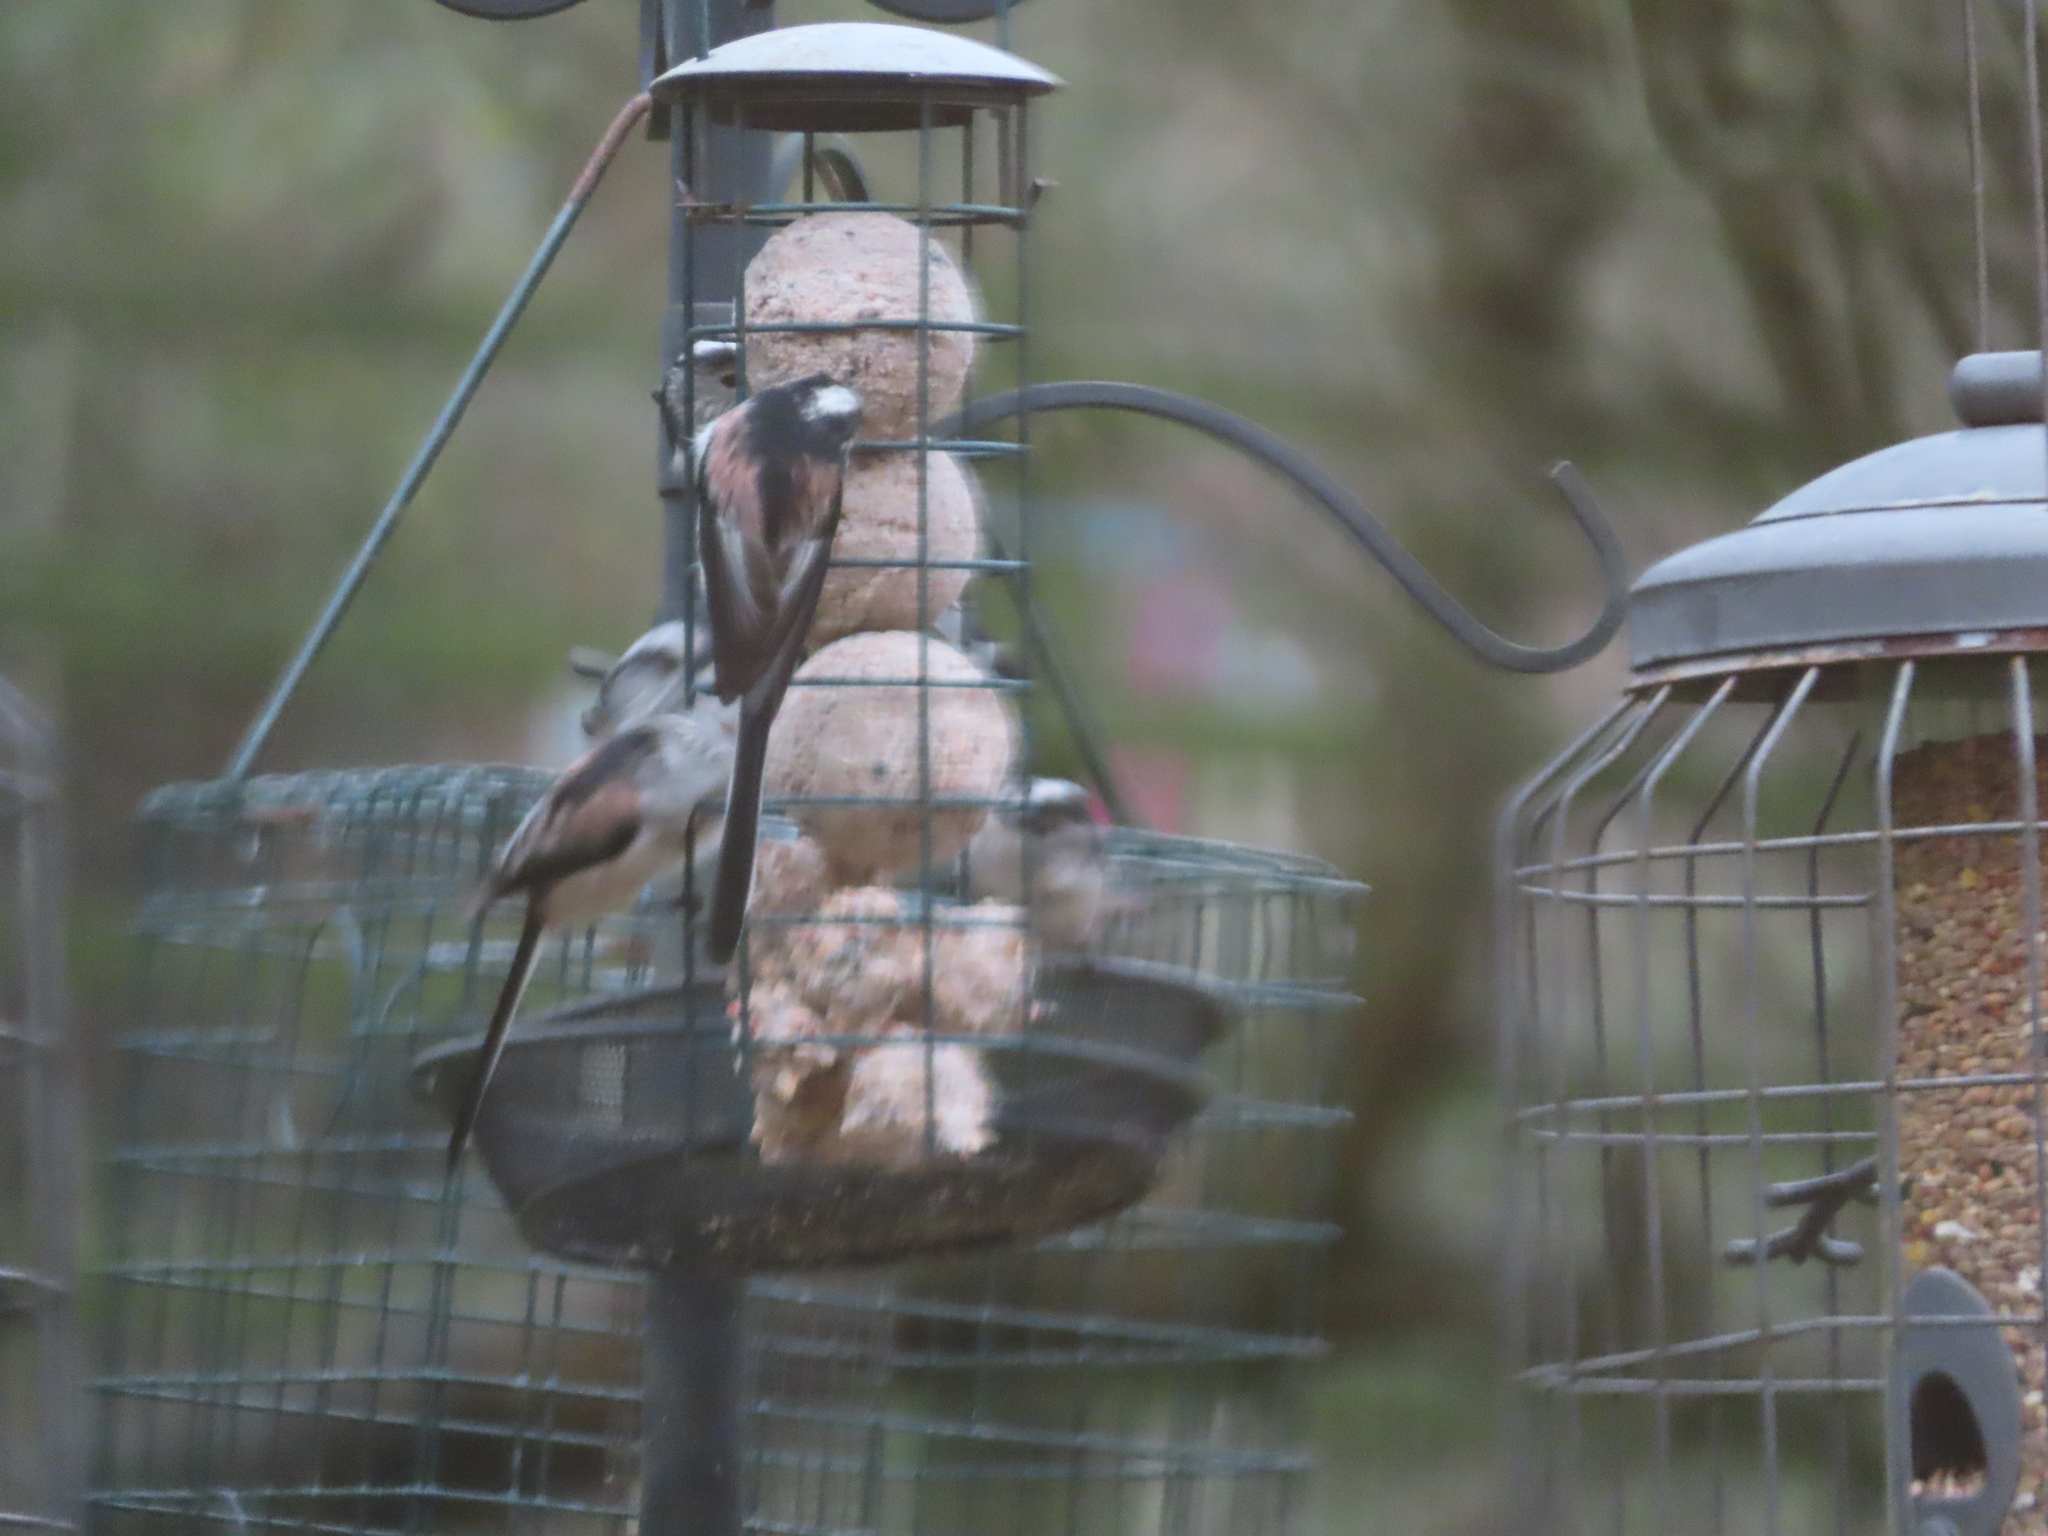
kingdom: Animalia
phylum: Chordata
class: Aves
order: Passeriformes
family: Aegithalidae
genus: Aegithalos
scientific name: Aegithalos caudatus
